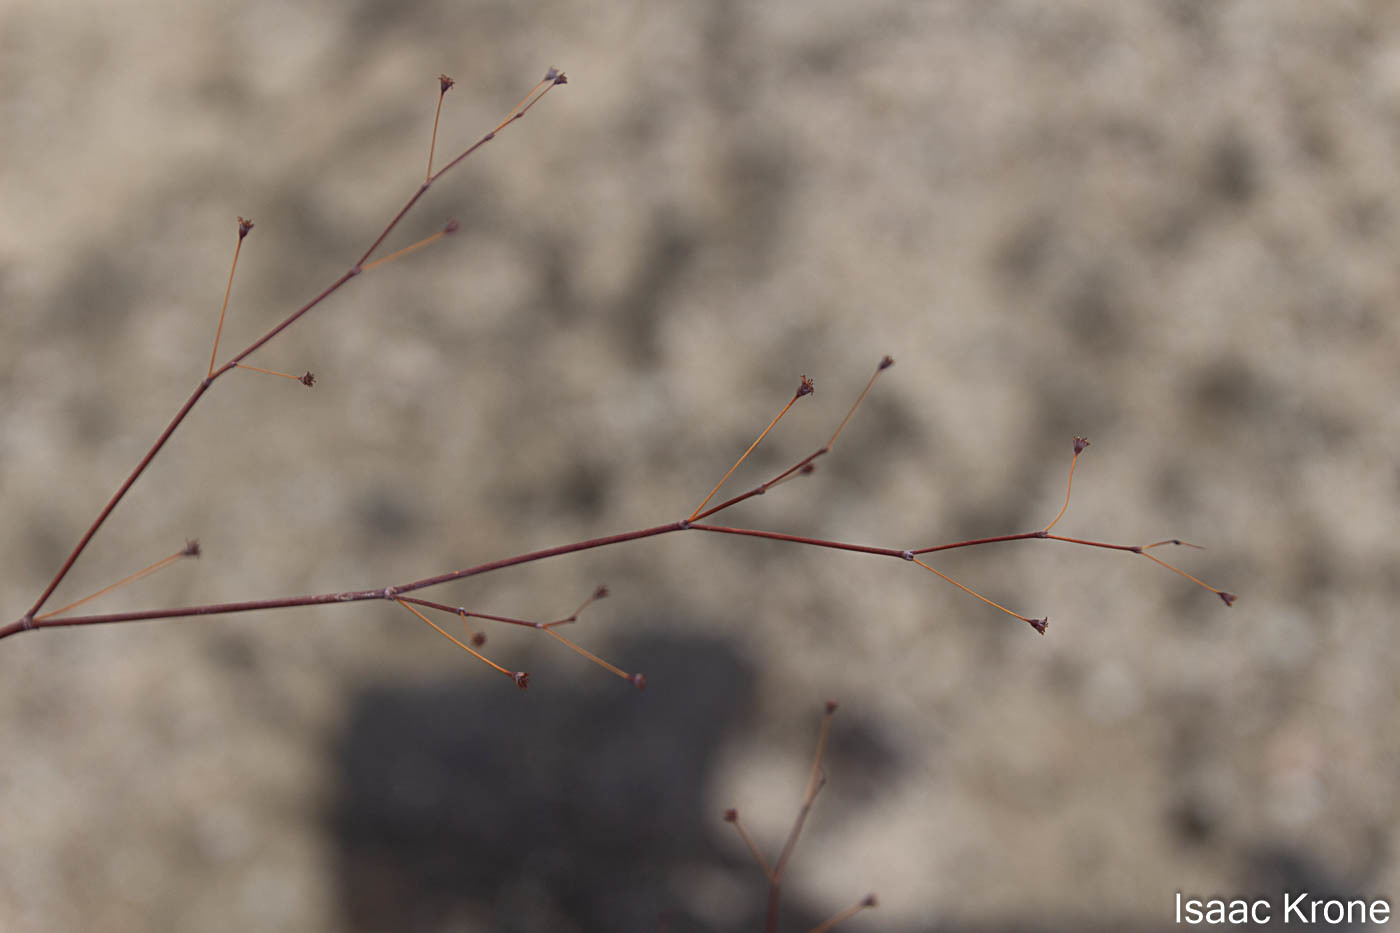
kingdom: Plantae
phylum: Tracheophyta
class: Magnoliopsida
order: Caryophyllales
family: Polygonaceae
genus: Eriogonum
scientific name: Eriogonum inflatum
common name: Desert trumpet
